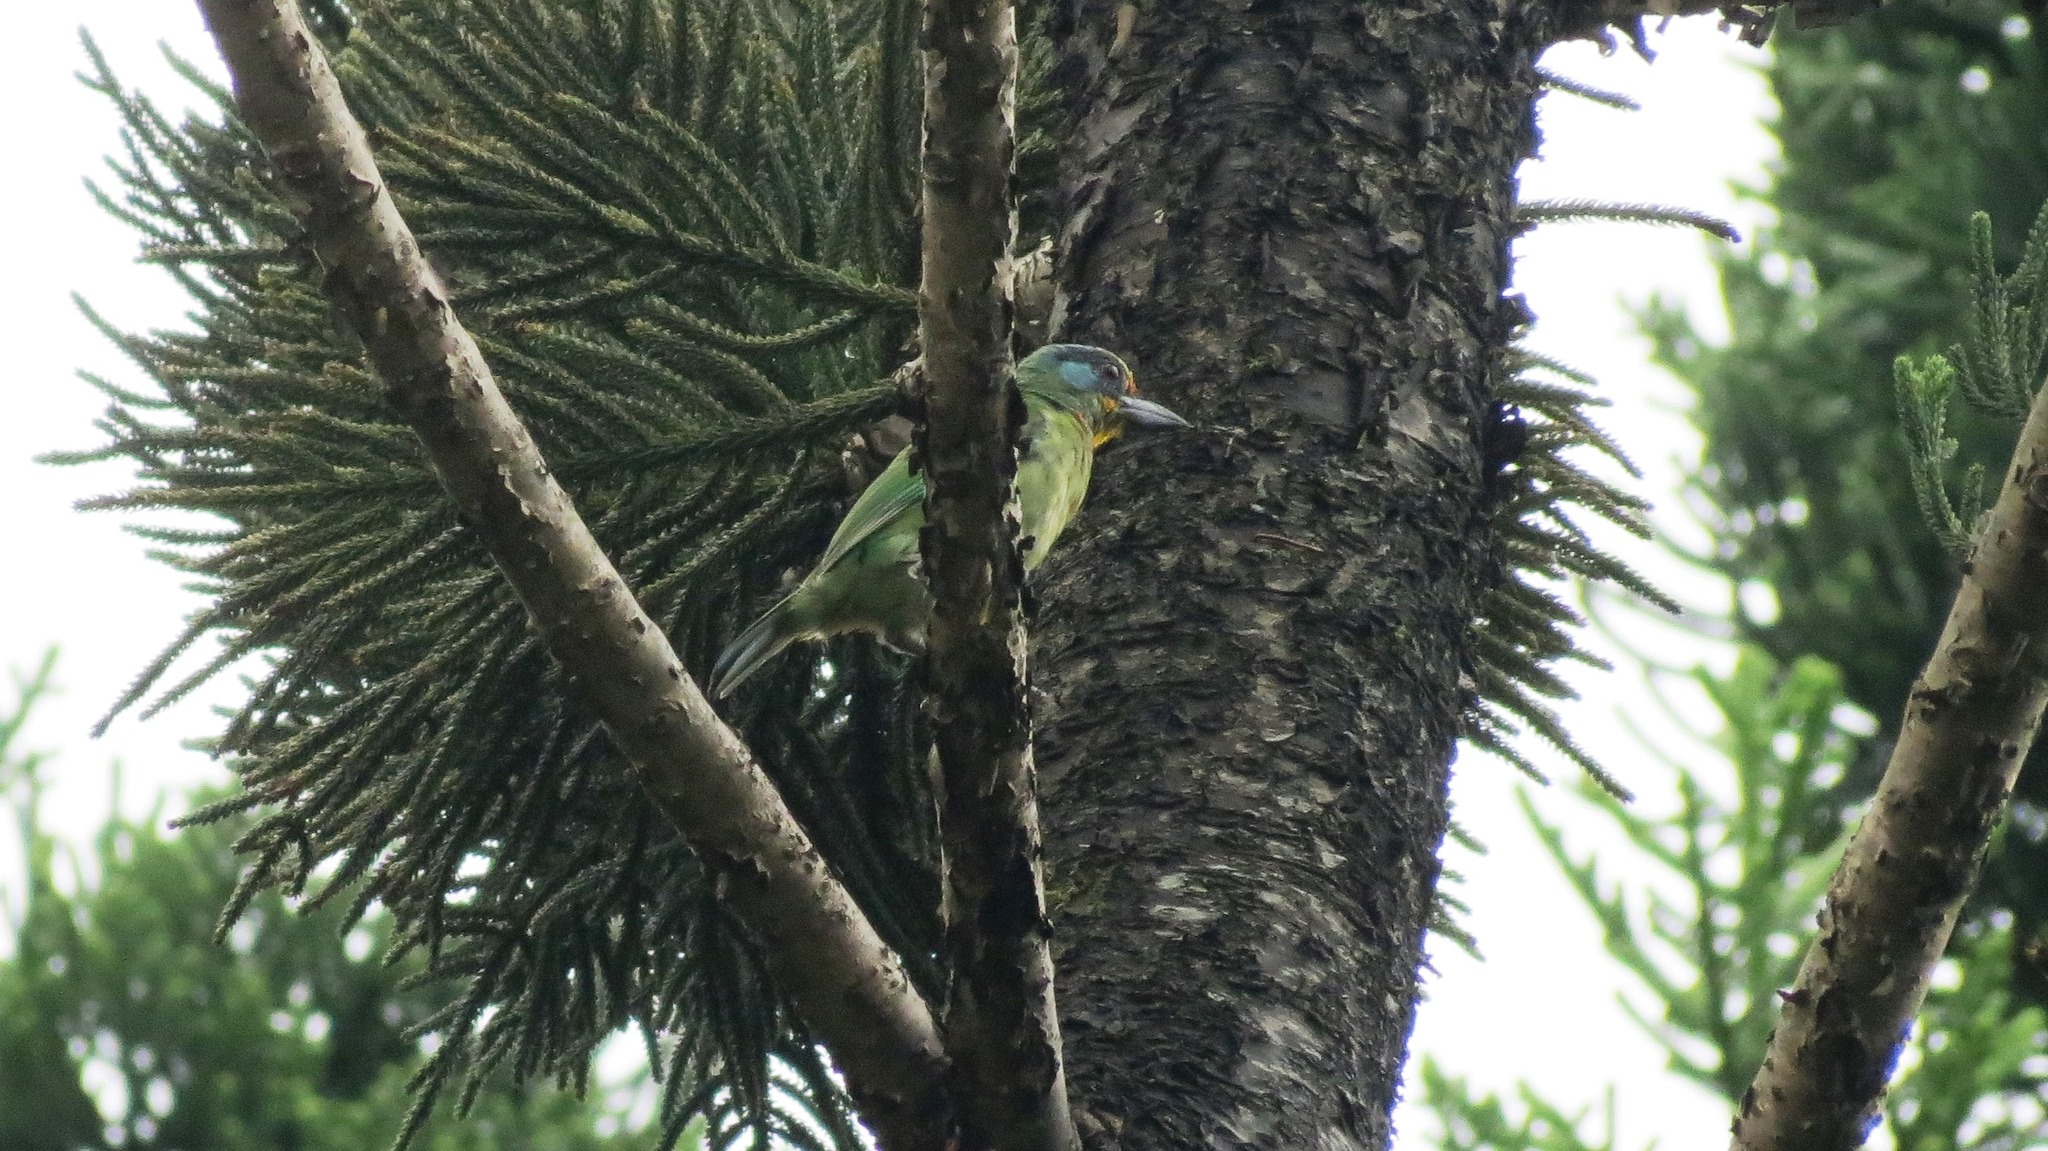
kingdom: Animalia
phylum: Chordata
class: Aves
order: Piciformes
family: Megalaimidae
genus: Psilopogon
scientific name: Psilopogon nuchalis
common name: Taiwan barbet
